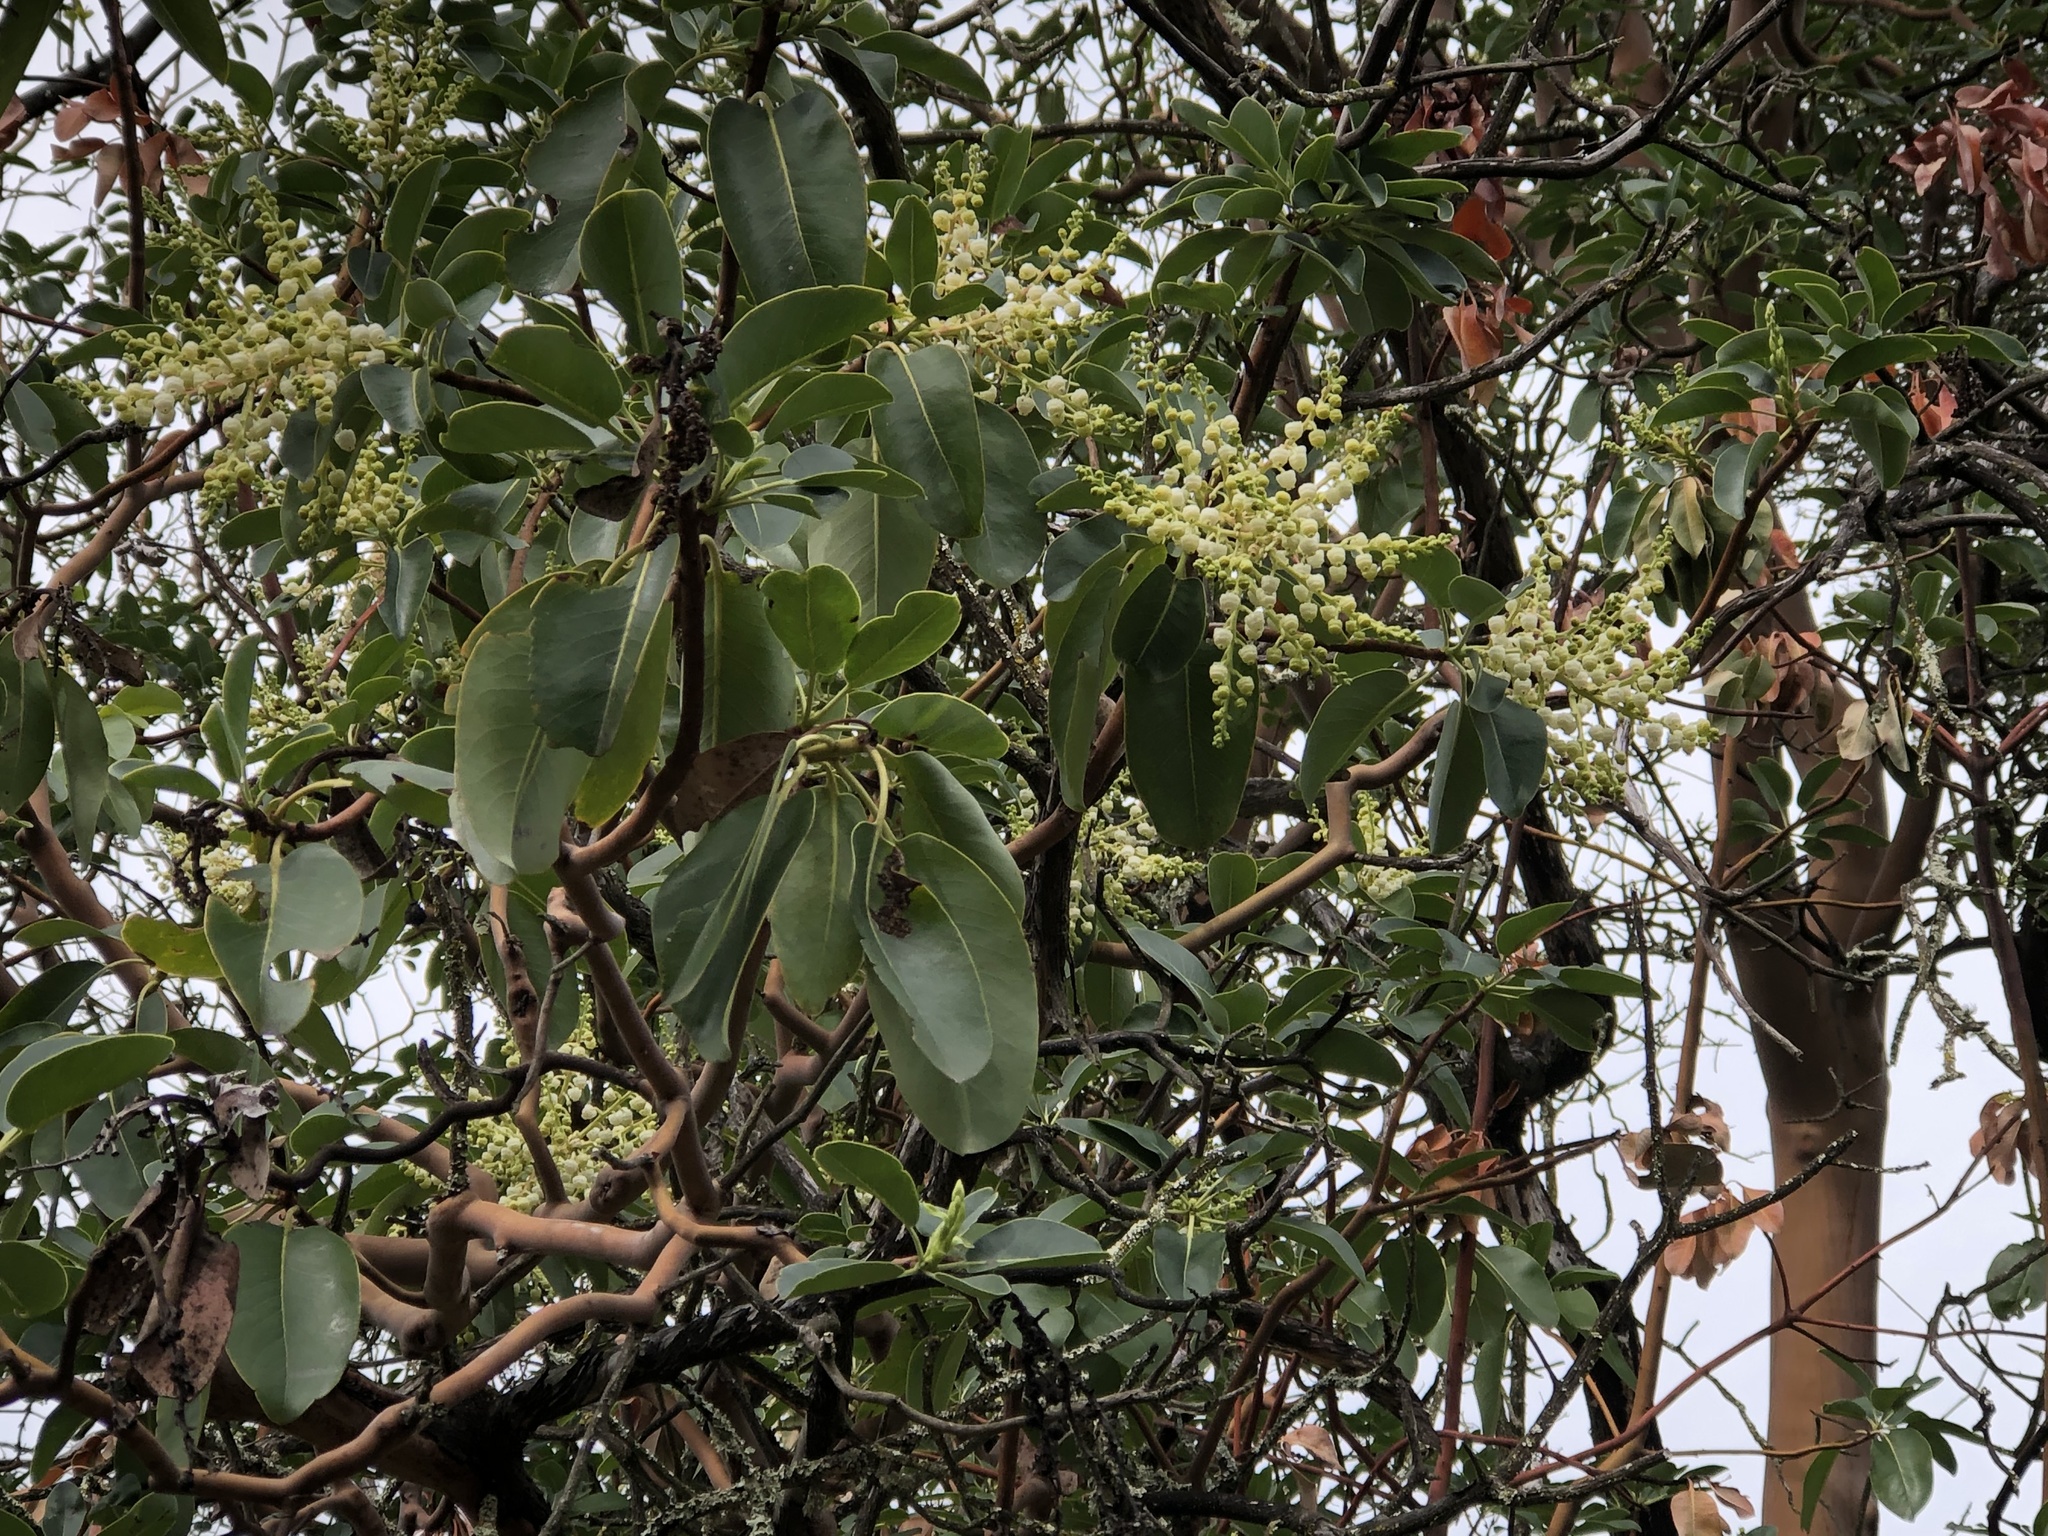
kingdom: Plantae
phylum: Tracheophyta
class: Magnoliopsida
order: Ericales
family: Ericaceae
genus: Arbutus
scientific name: Arbutus menziesii
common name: Pacific madrone
